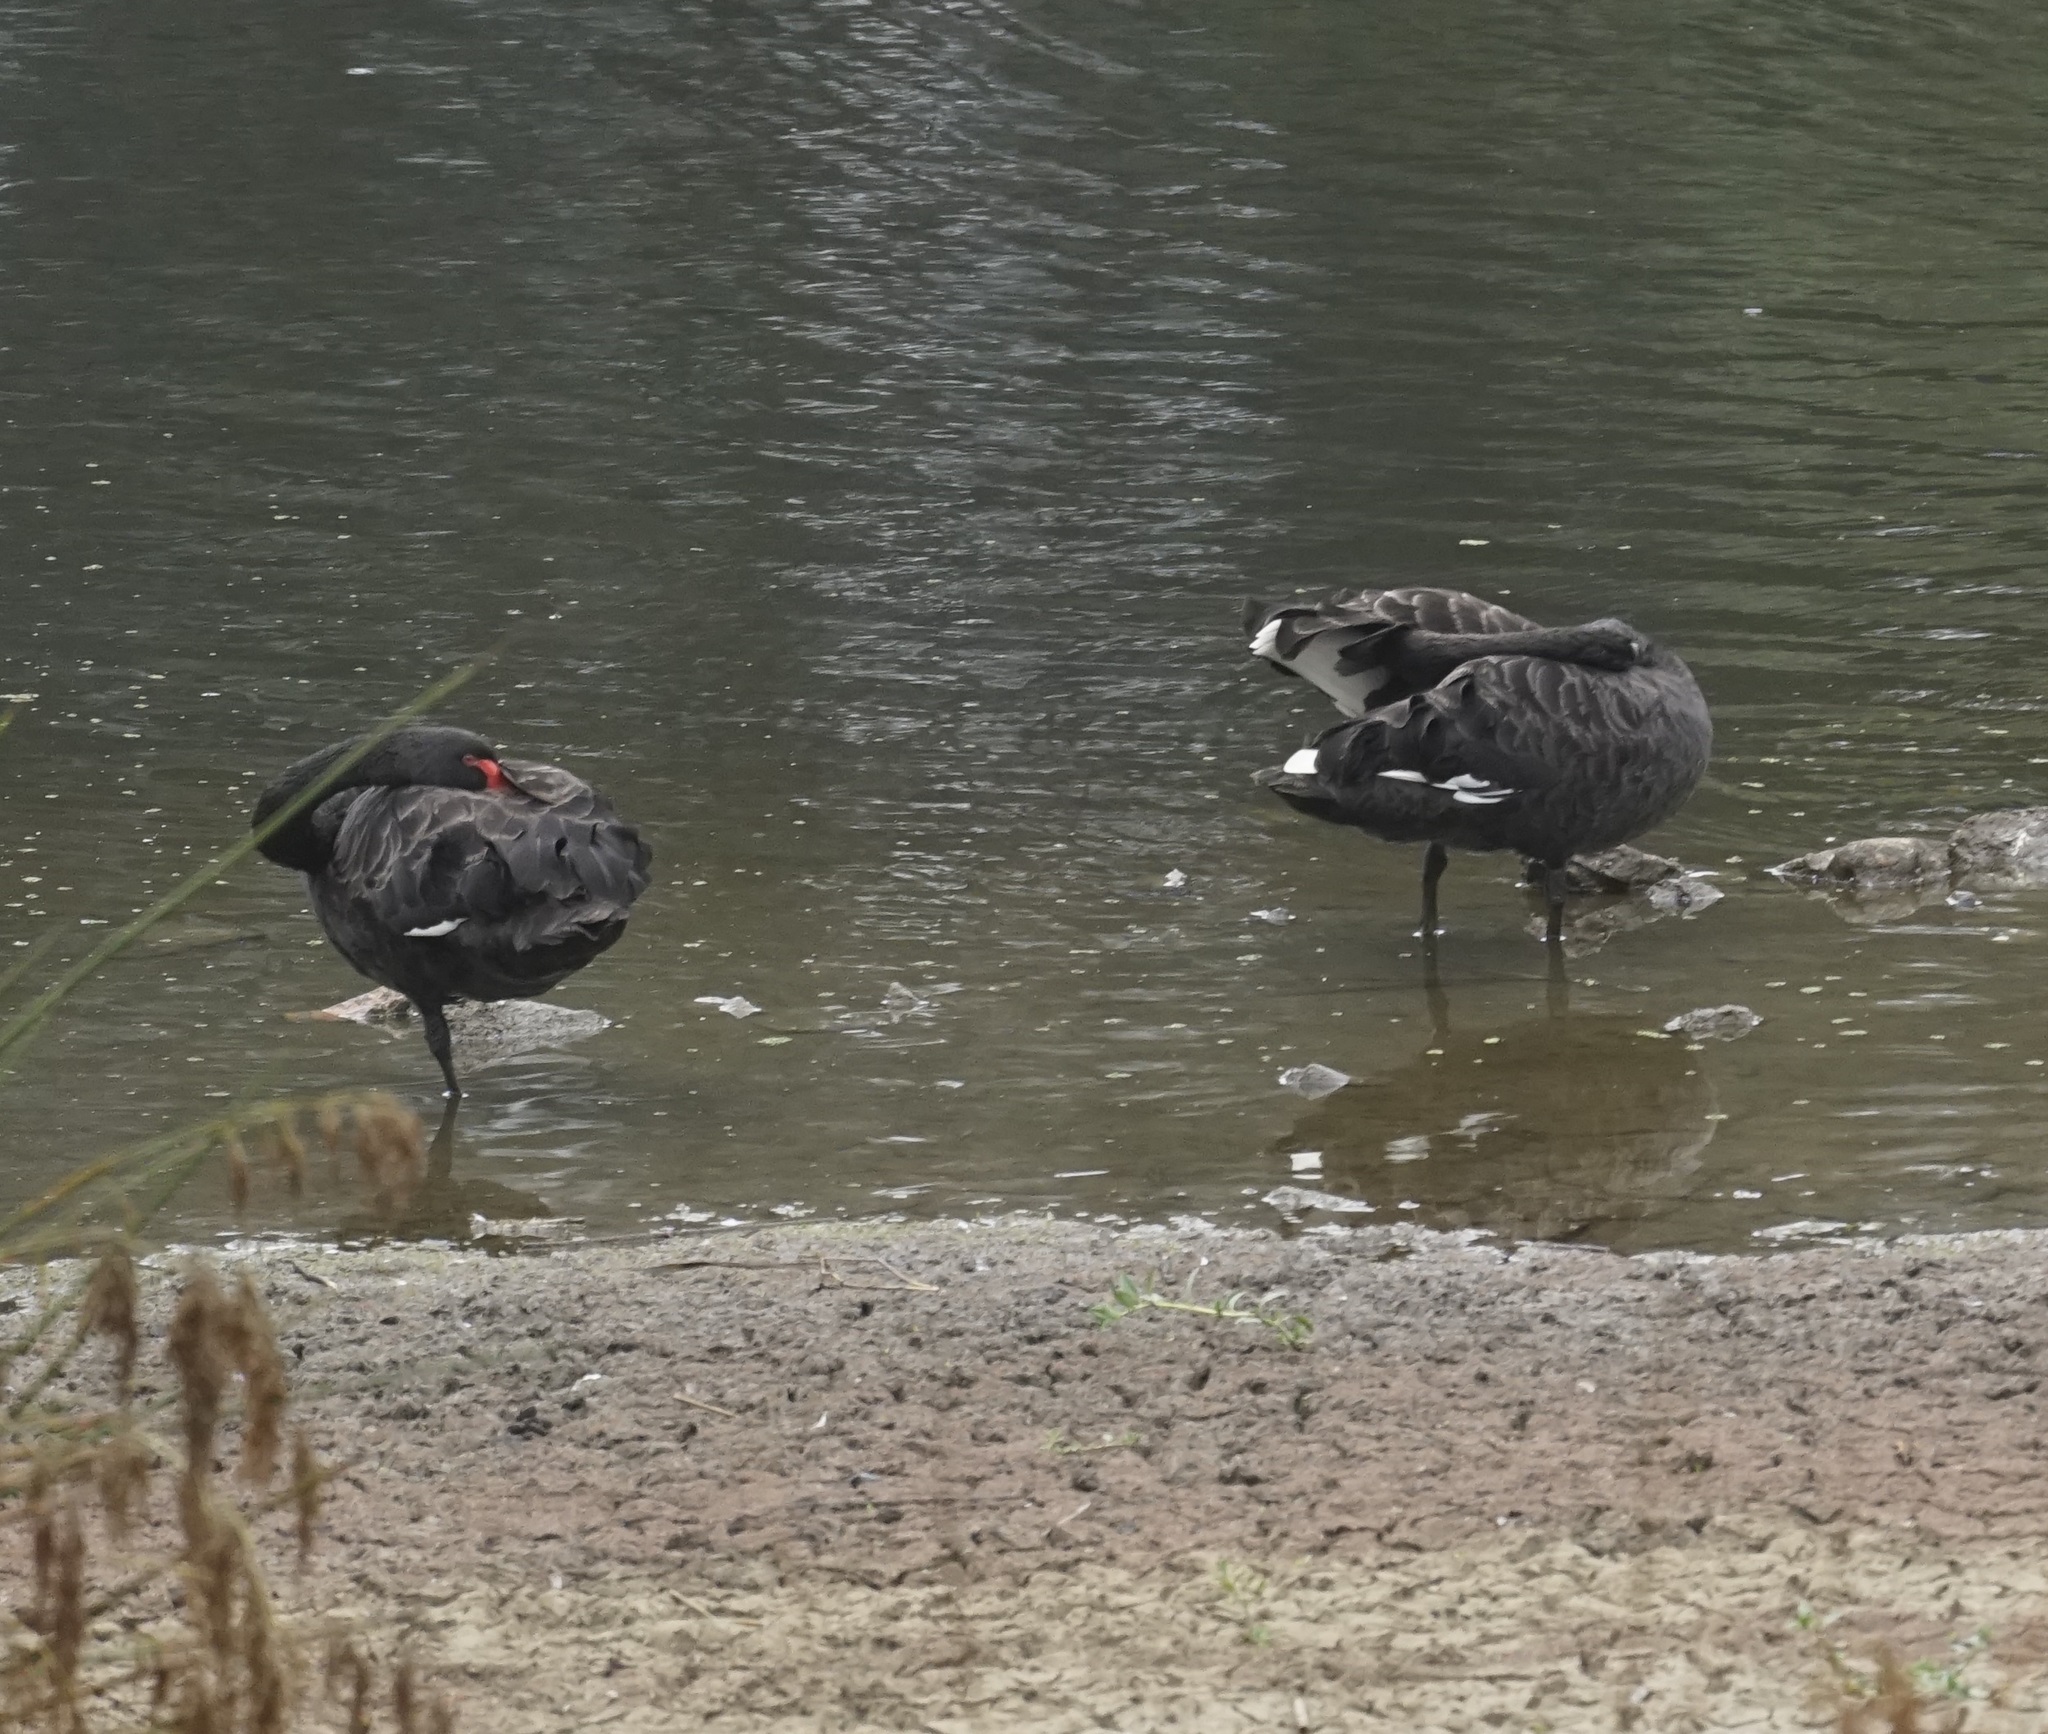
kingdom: Animalia
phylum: Chordata
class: Aves
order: Anseriformes
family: Anatidae
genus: Cygnus
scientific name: Cygnus atratus
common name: Black swan
